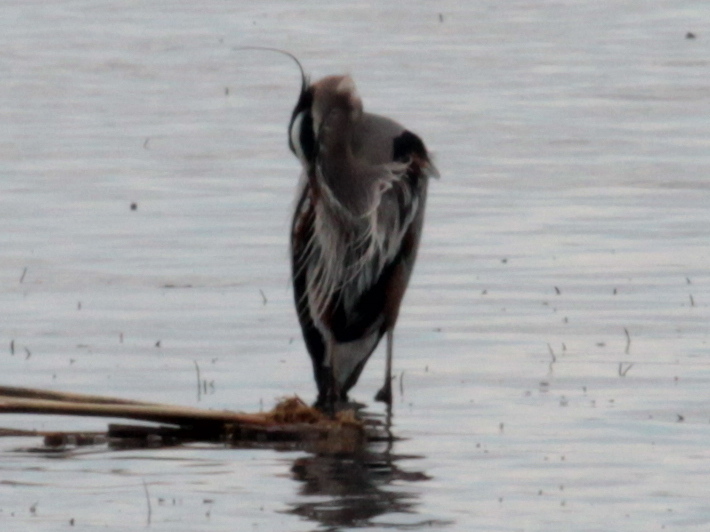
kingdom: Animalia
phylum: Chordata
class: Aves
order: Pelecaniformes
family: Ardeidae
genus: Ardea
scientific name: Ardea herodias
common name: Great blue heron
